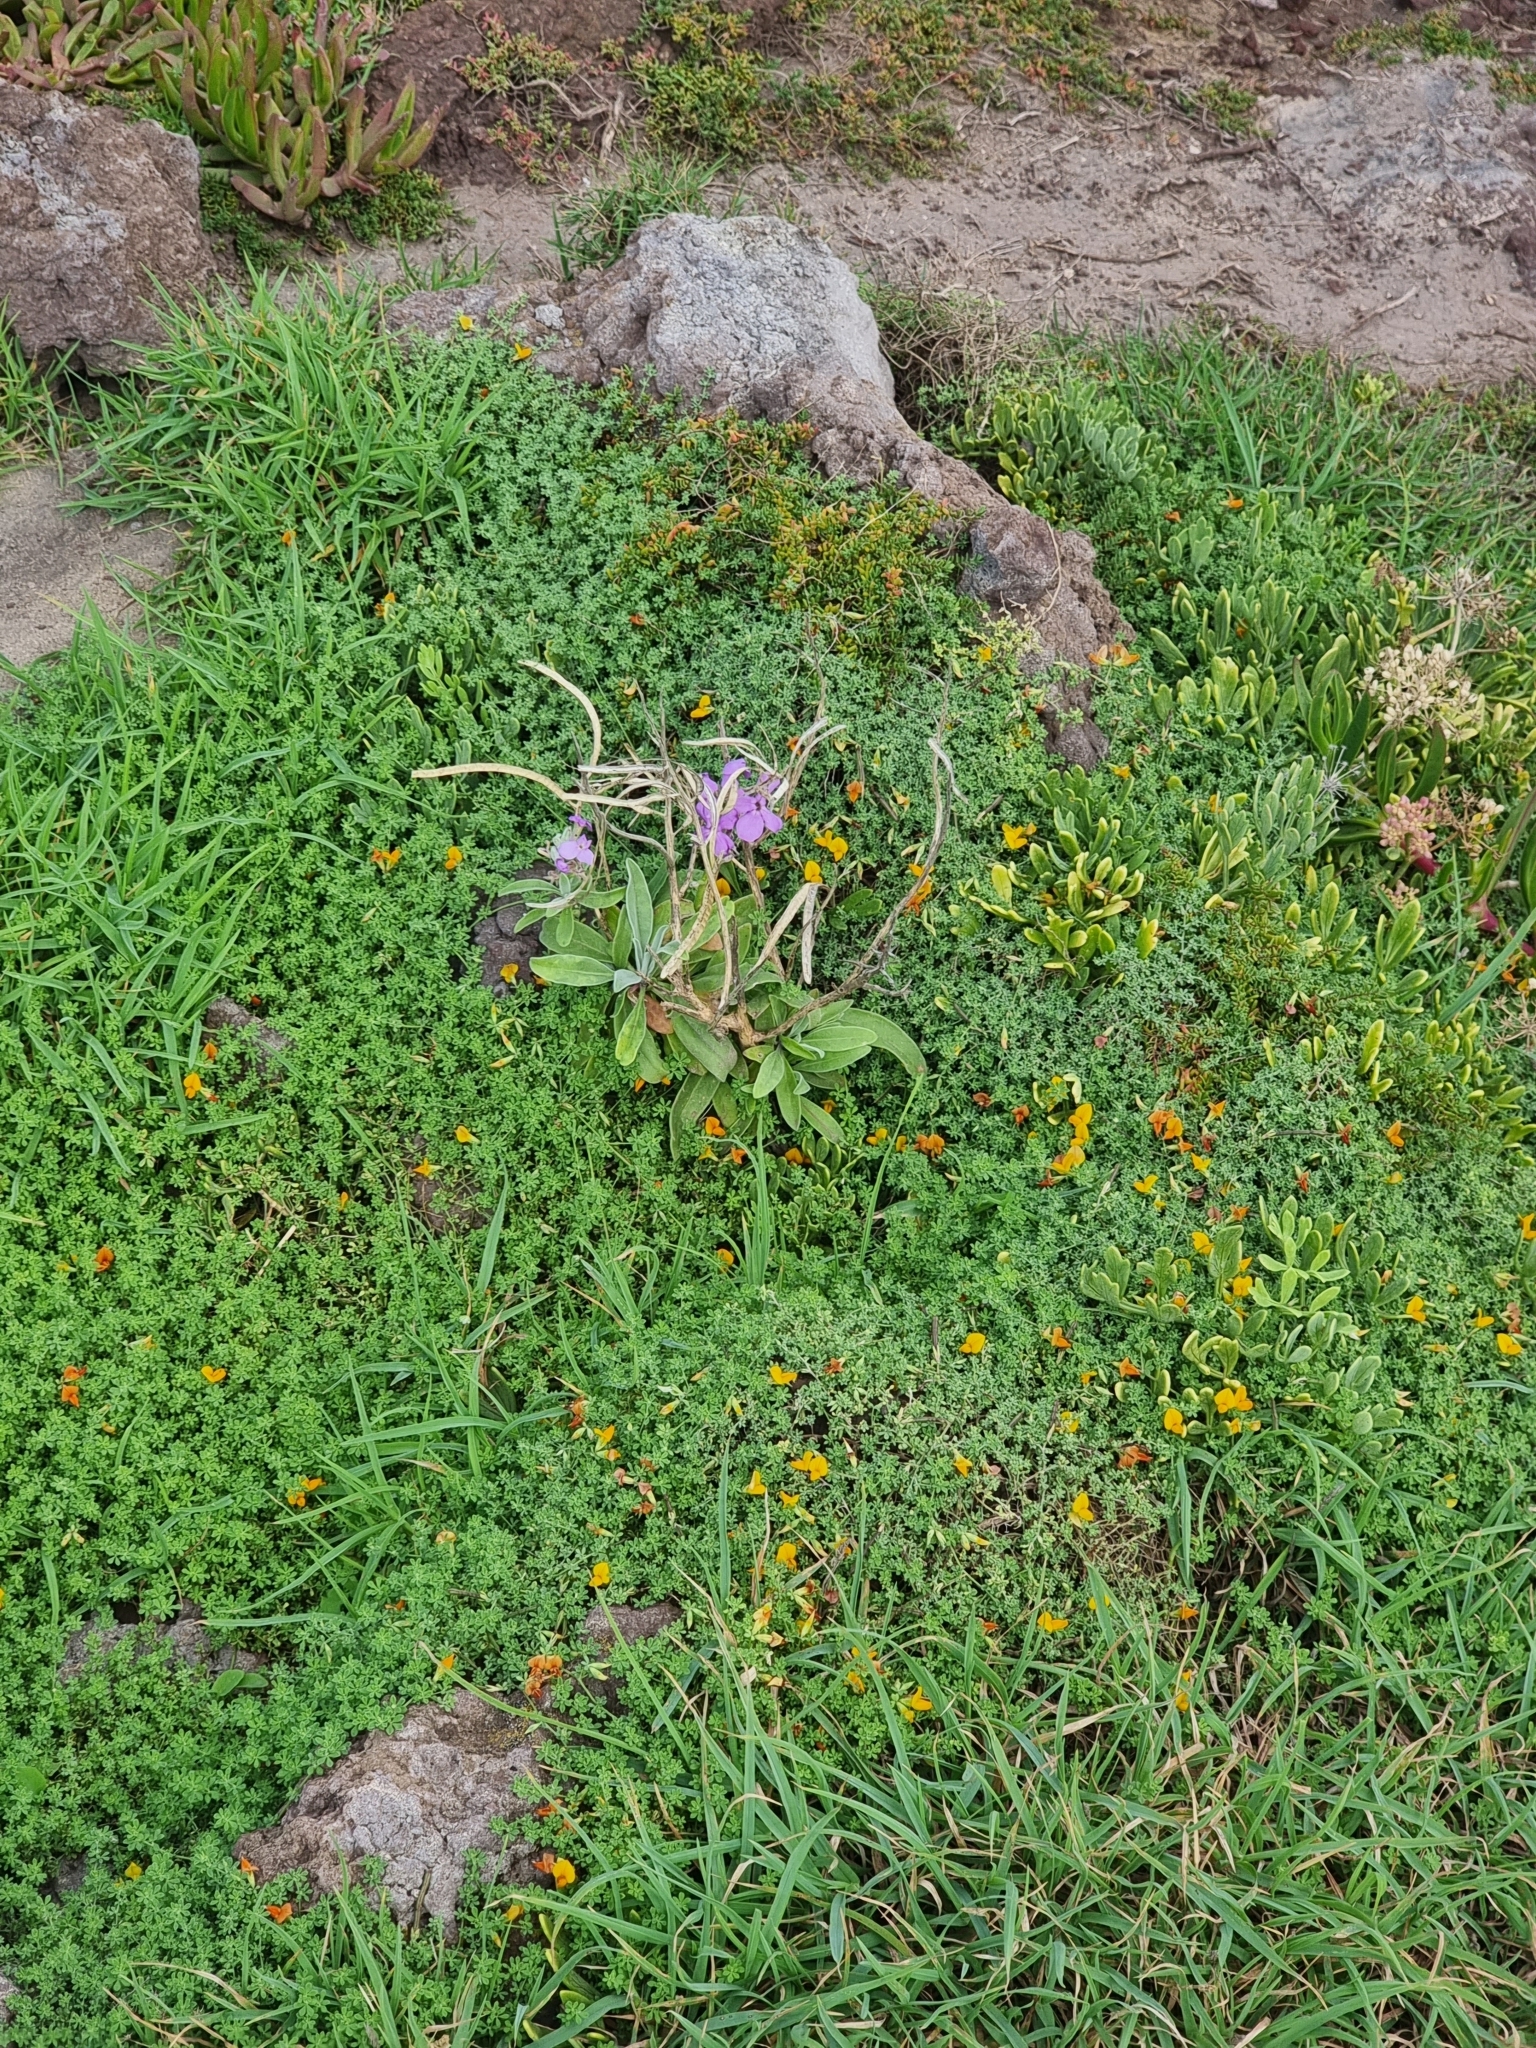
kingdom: Plantae
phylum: Tracheophyta
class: Magnoliopsida
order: Brassicales
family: Brassicaceae
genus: Matthiola
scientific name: Matthiola maderensis
